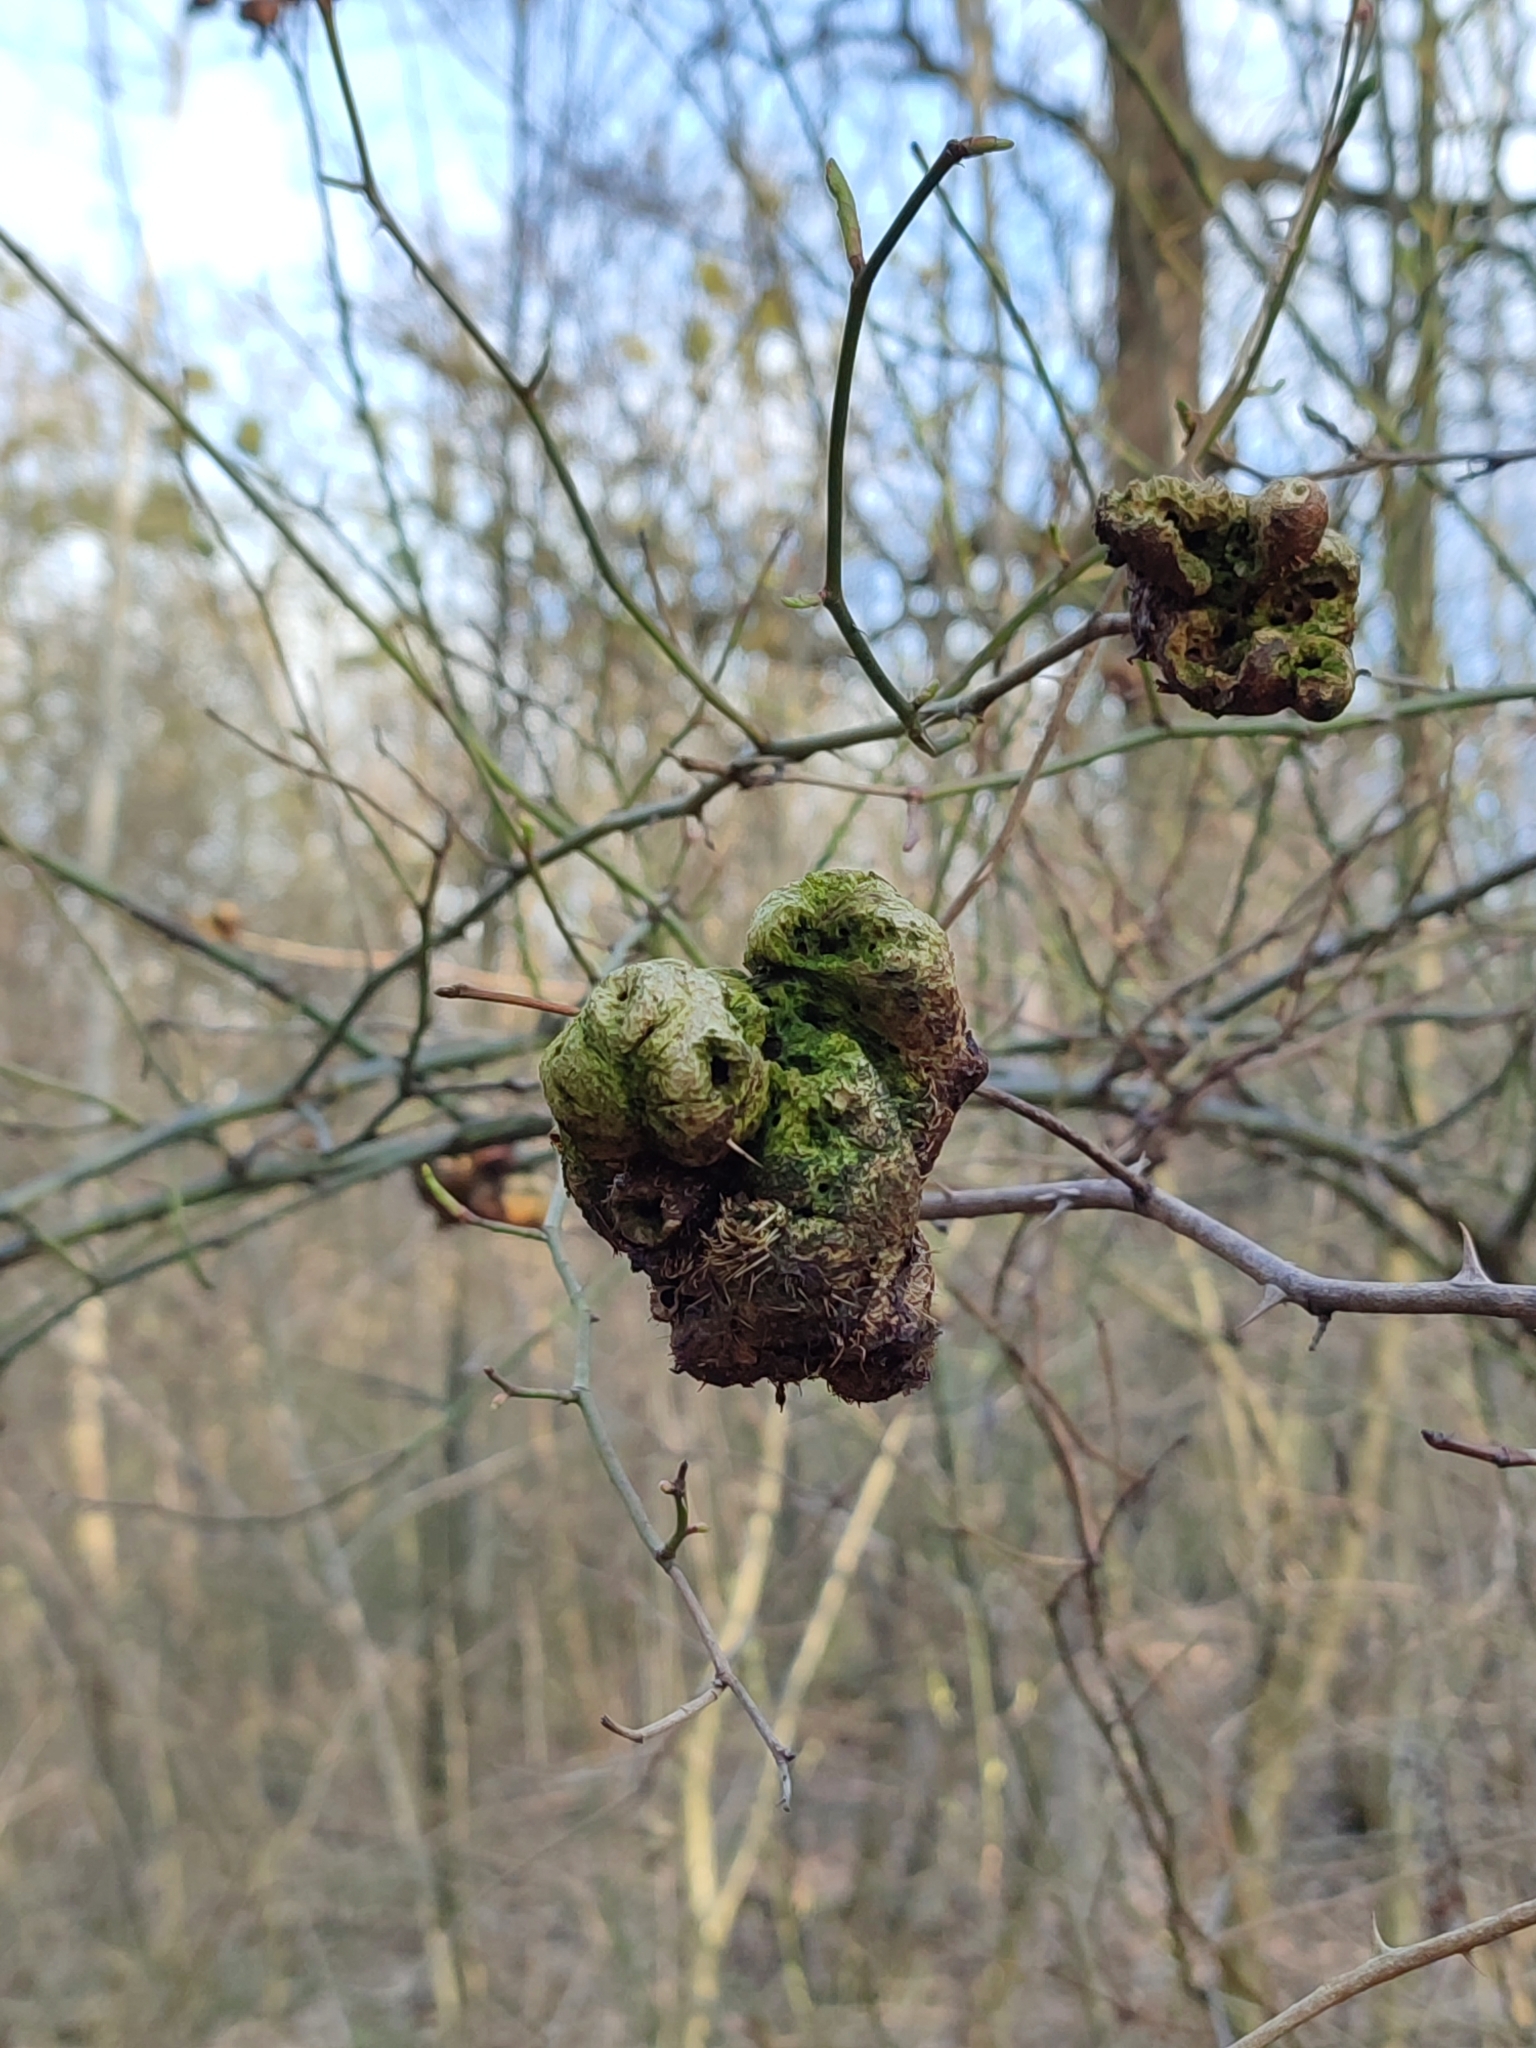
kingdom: Animalia
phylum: Arthropoda
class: Insecta
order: Hymenoptera
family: Cynipidae
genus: Diplolepis
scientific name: Diplolepis mayri
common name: Gall wasp
